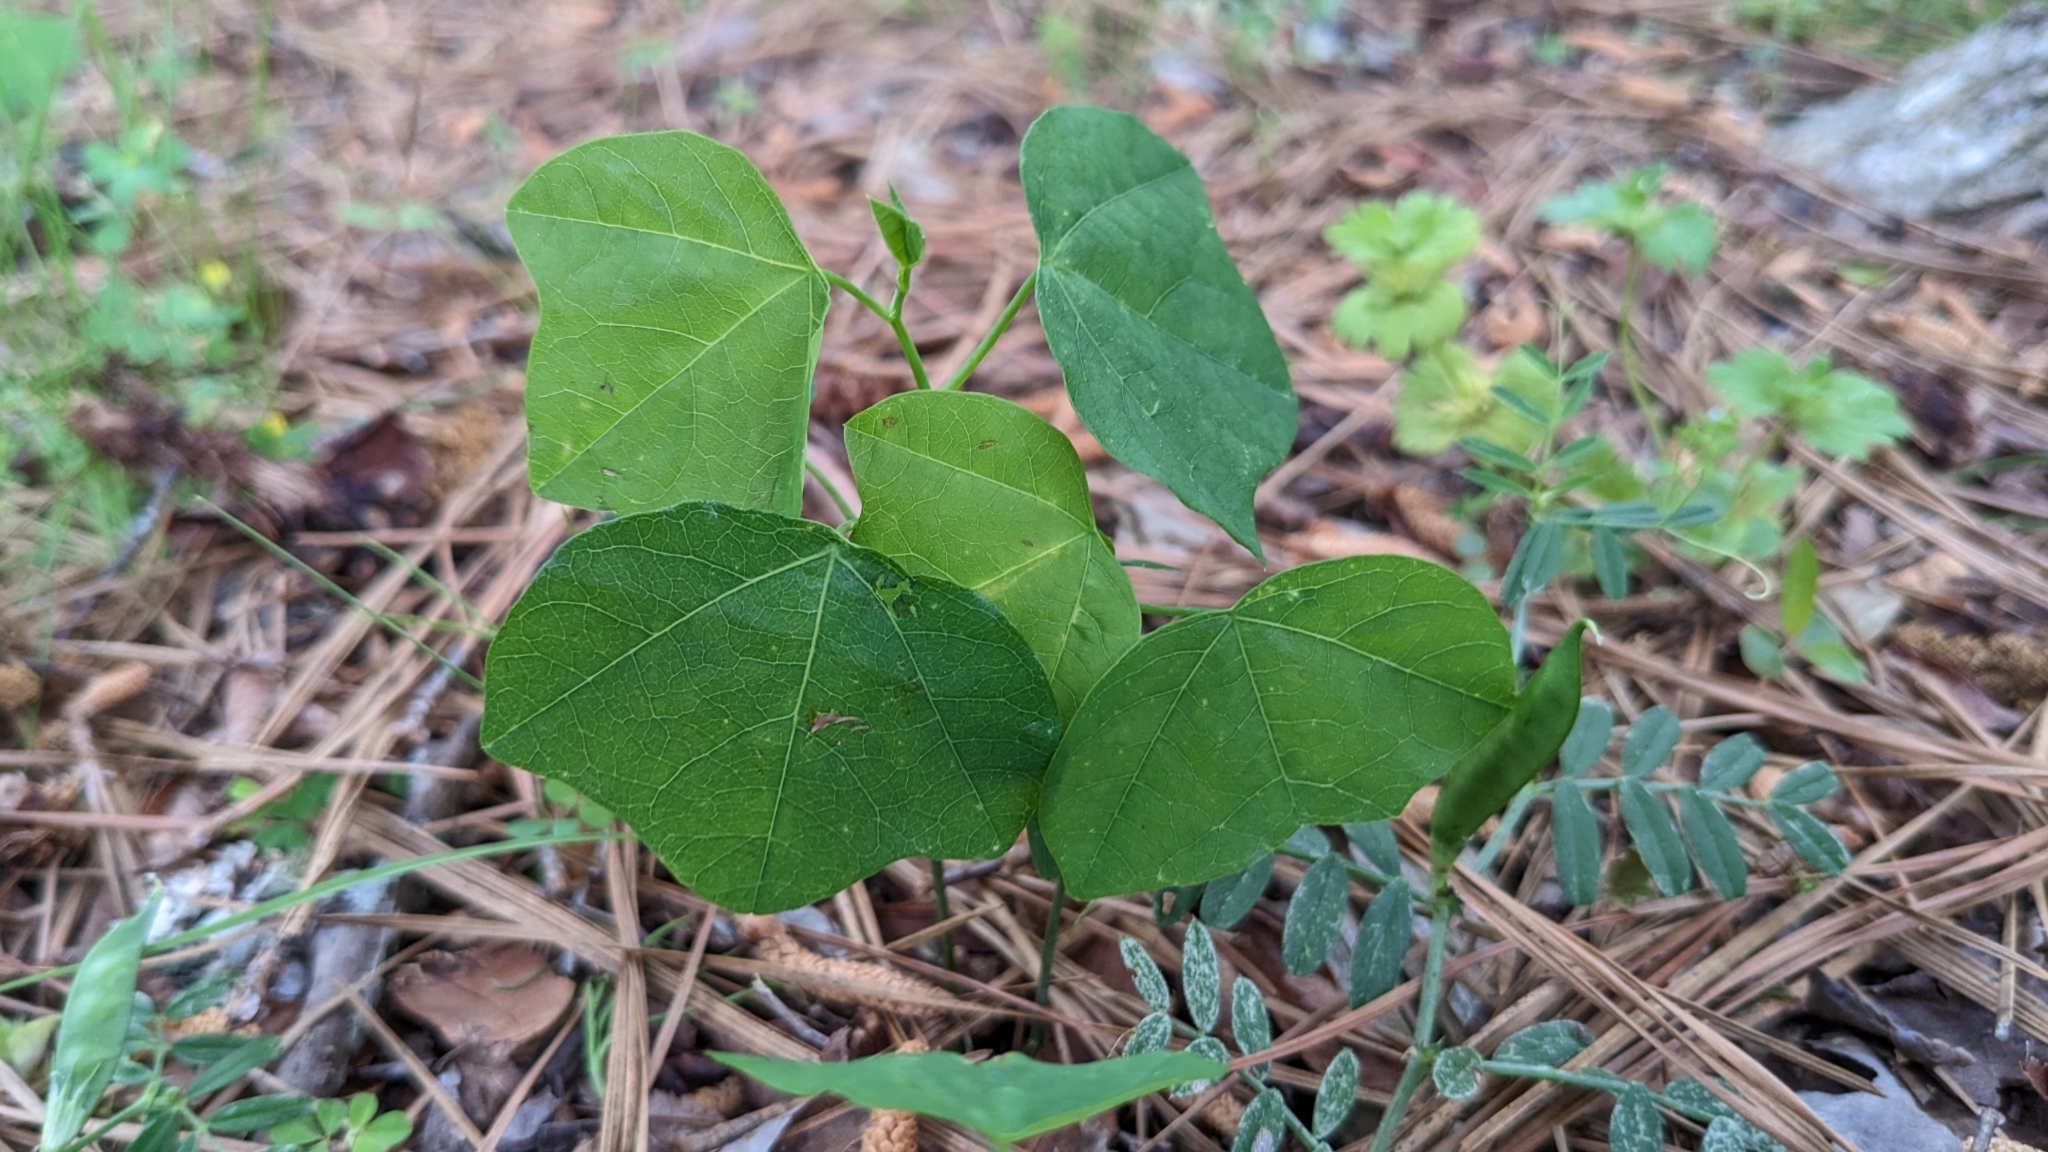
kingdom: Plantae
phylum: Tracheophyta
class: Magnoliopsida
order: Malpighiales
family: Passifloraceae
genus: Passiflora
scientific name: Passiflora lutea
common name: Yellow passionflower
